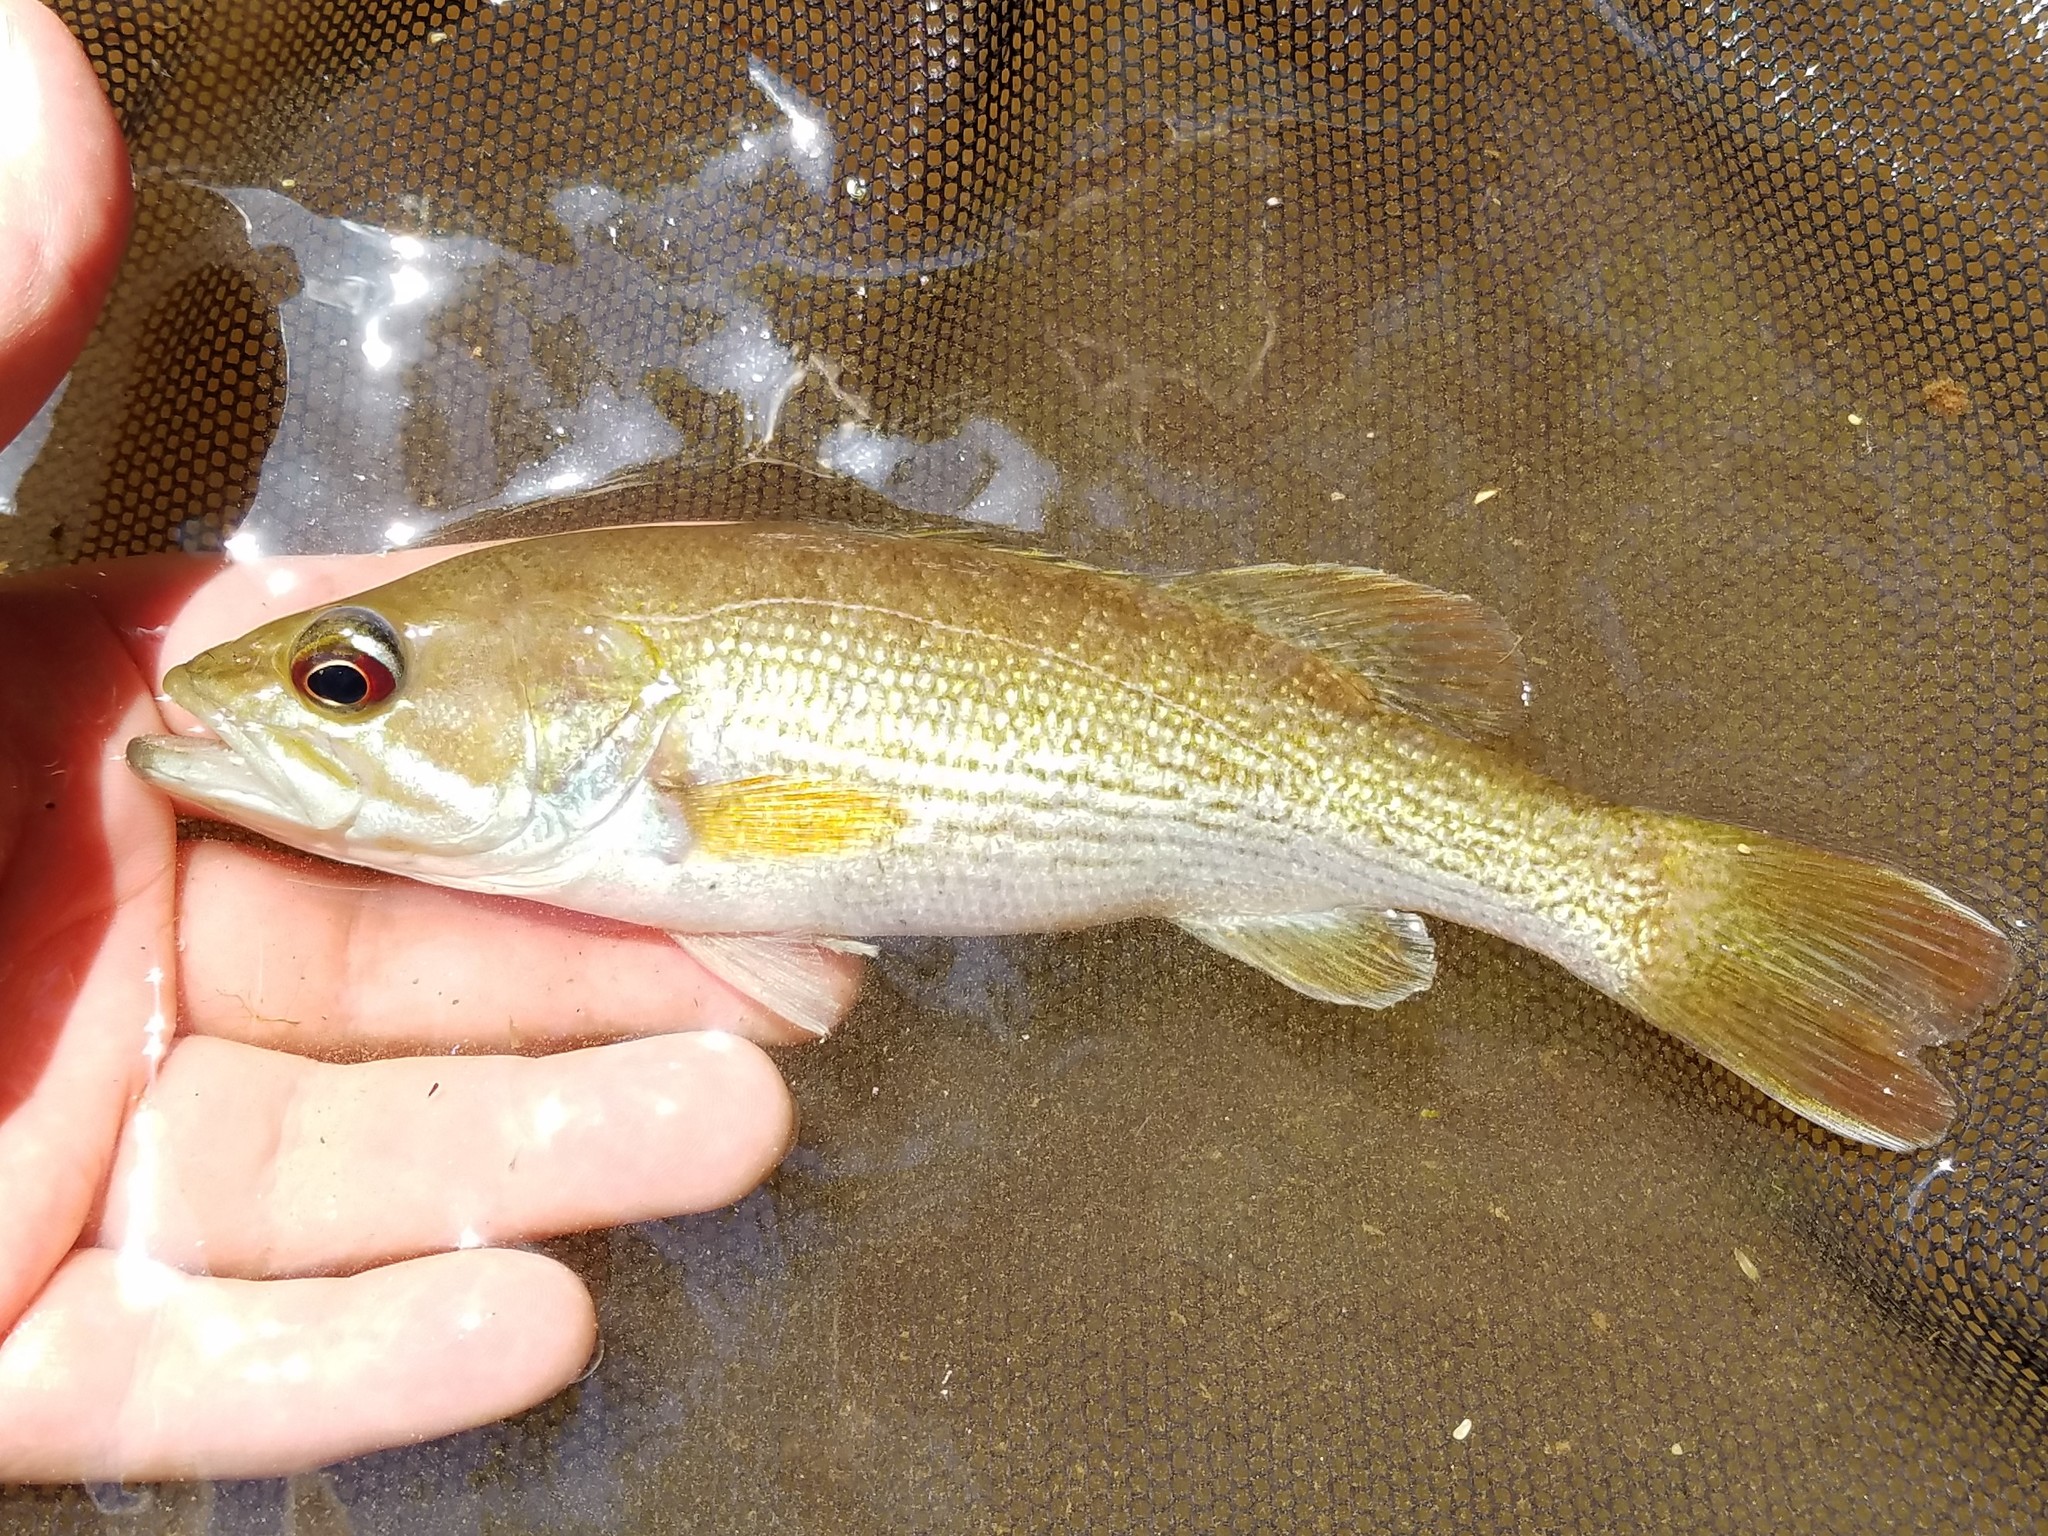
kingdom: Animalia
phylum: Chordata
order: Perciformes
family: Centrarchidae
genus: Micropterus
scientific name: Micropterus coosae
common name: Redeye bass
